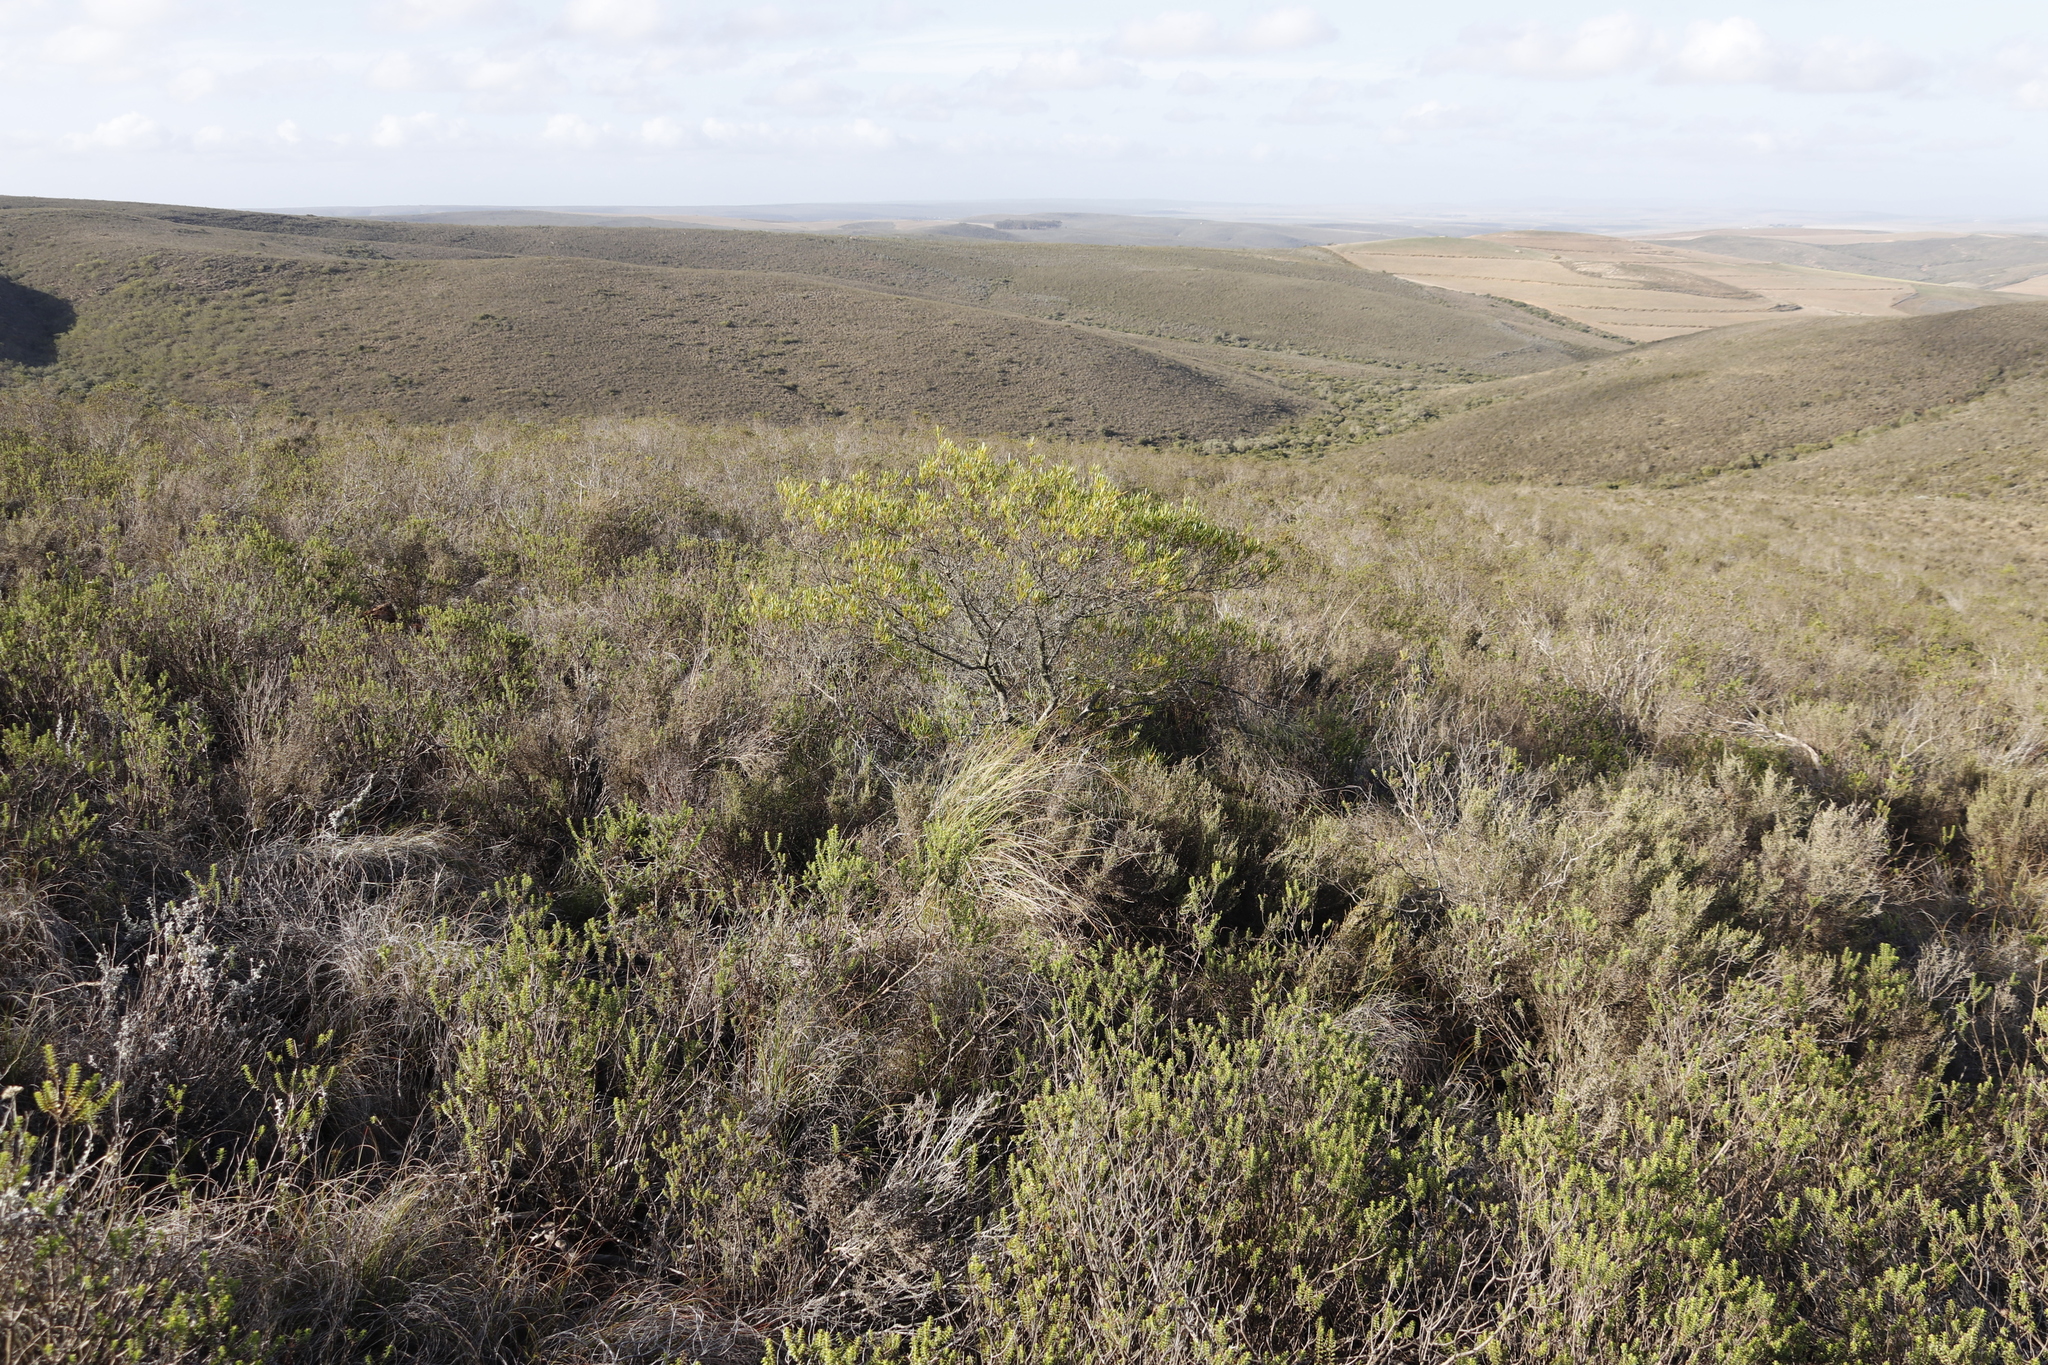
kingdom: Plantae
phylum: Tracheophyta
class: Magnoliopsida
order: Sapindales
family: Sapindaceae
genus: Dodonaea
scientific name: Dodonaea viscosa
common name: Hopbush
